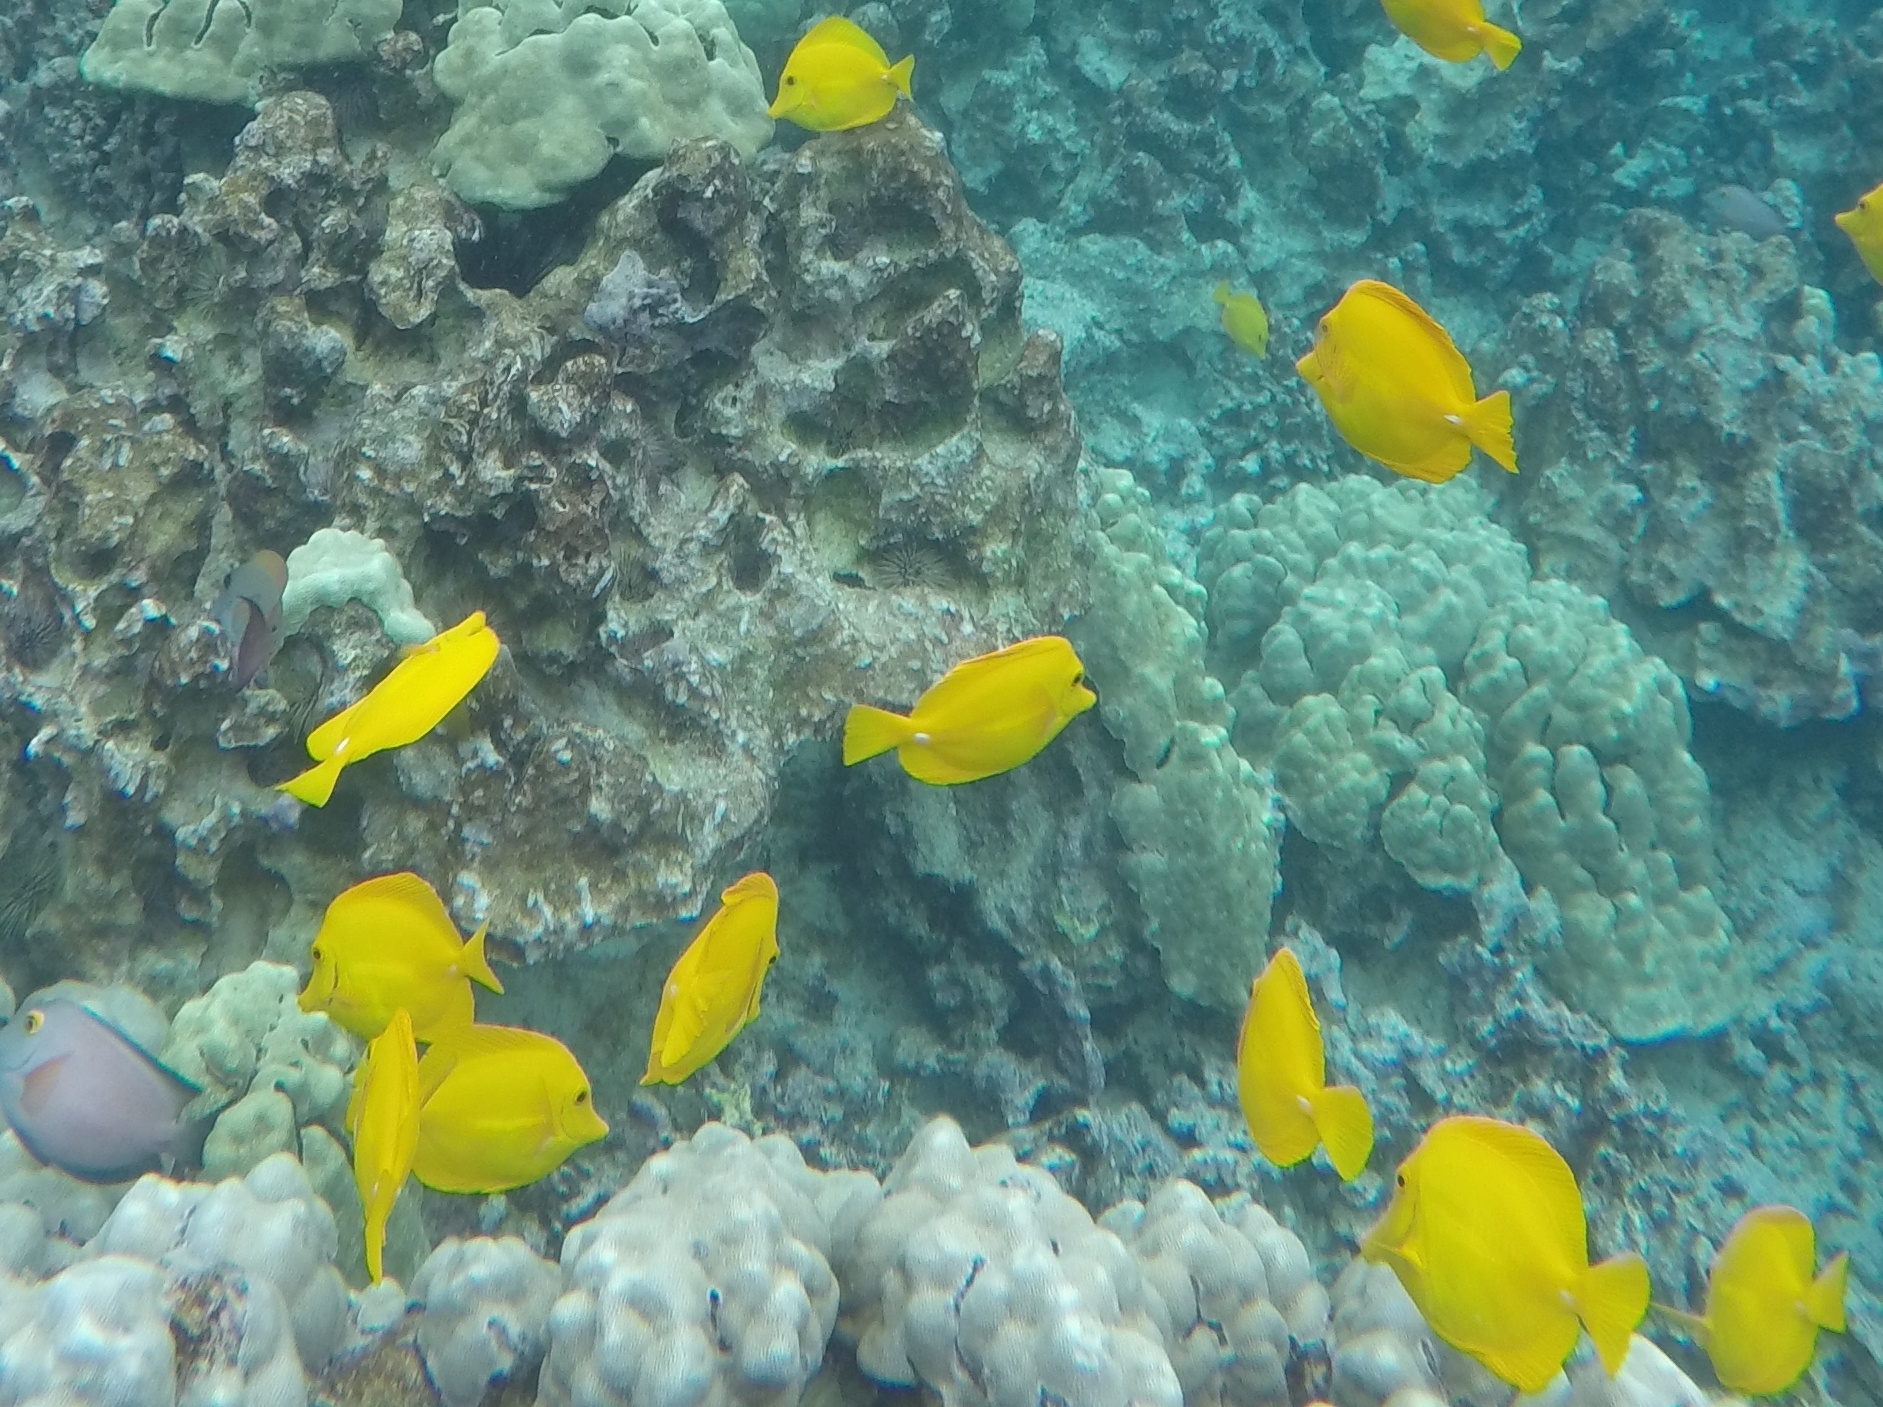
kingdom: Animalia
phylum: Chordata
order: Perciformes
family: Acanthuridae
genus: Zebrasoma
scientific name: Zebrasoma flavescens
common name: Yellow tang
